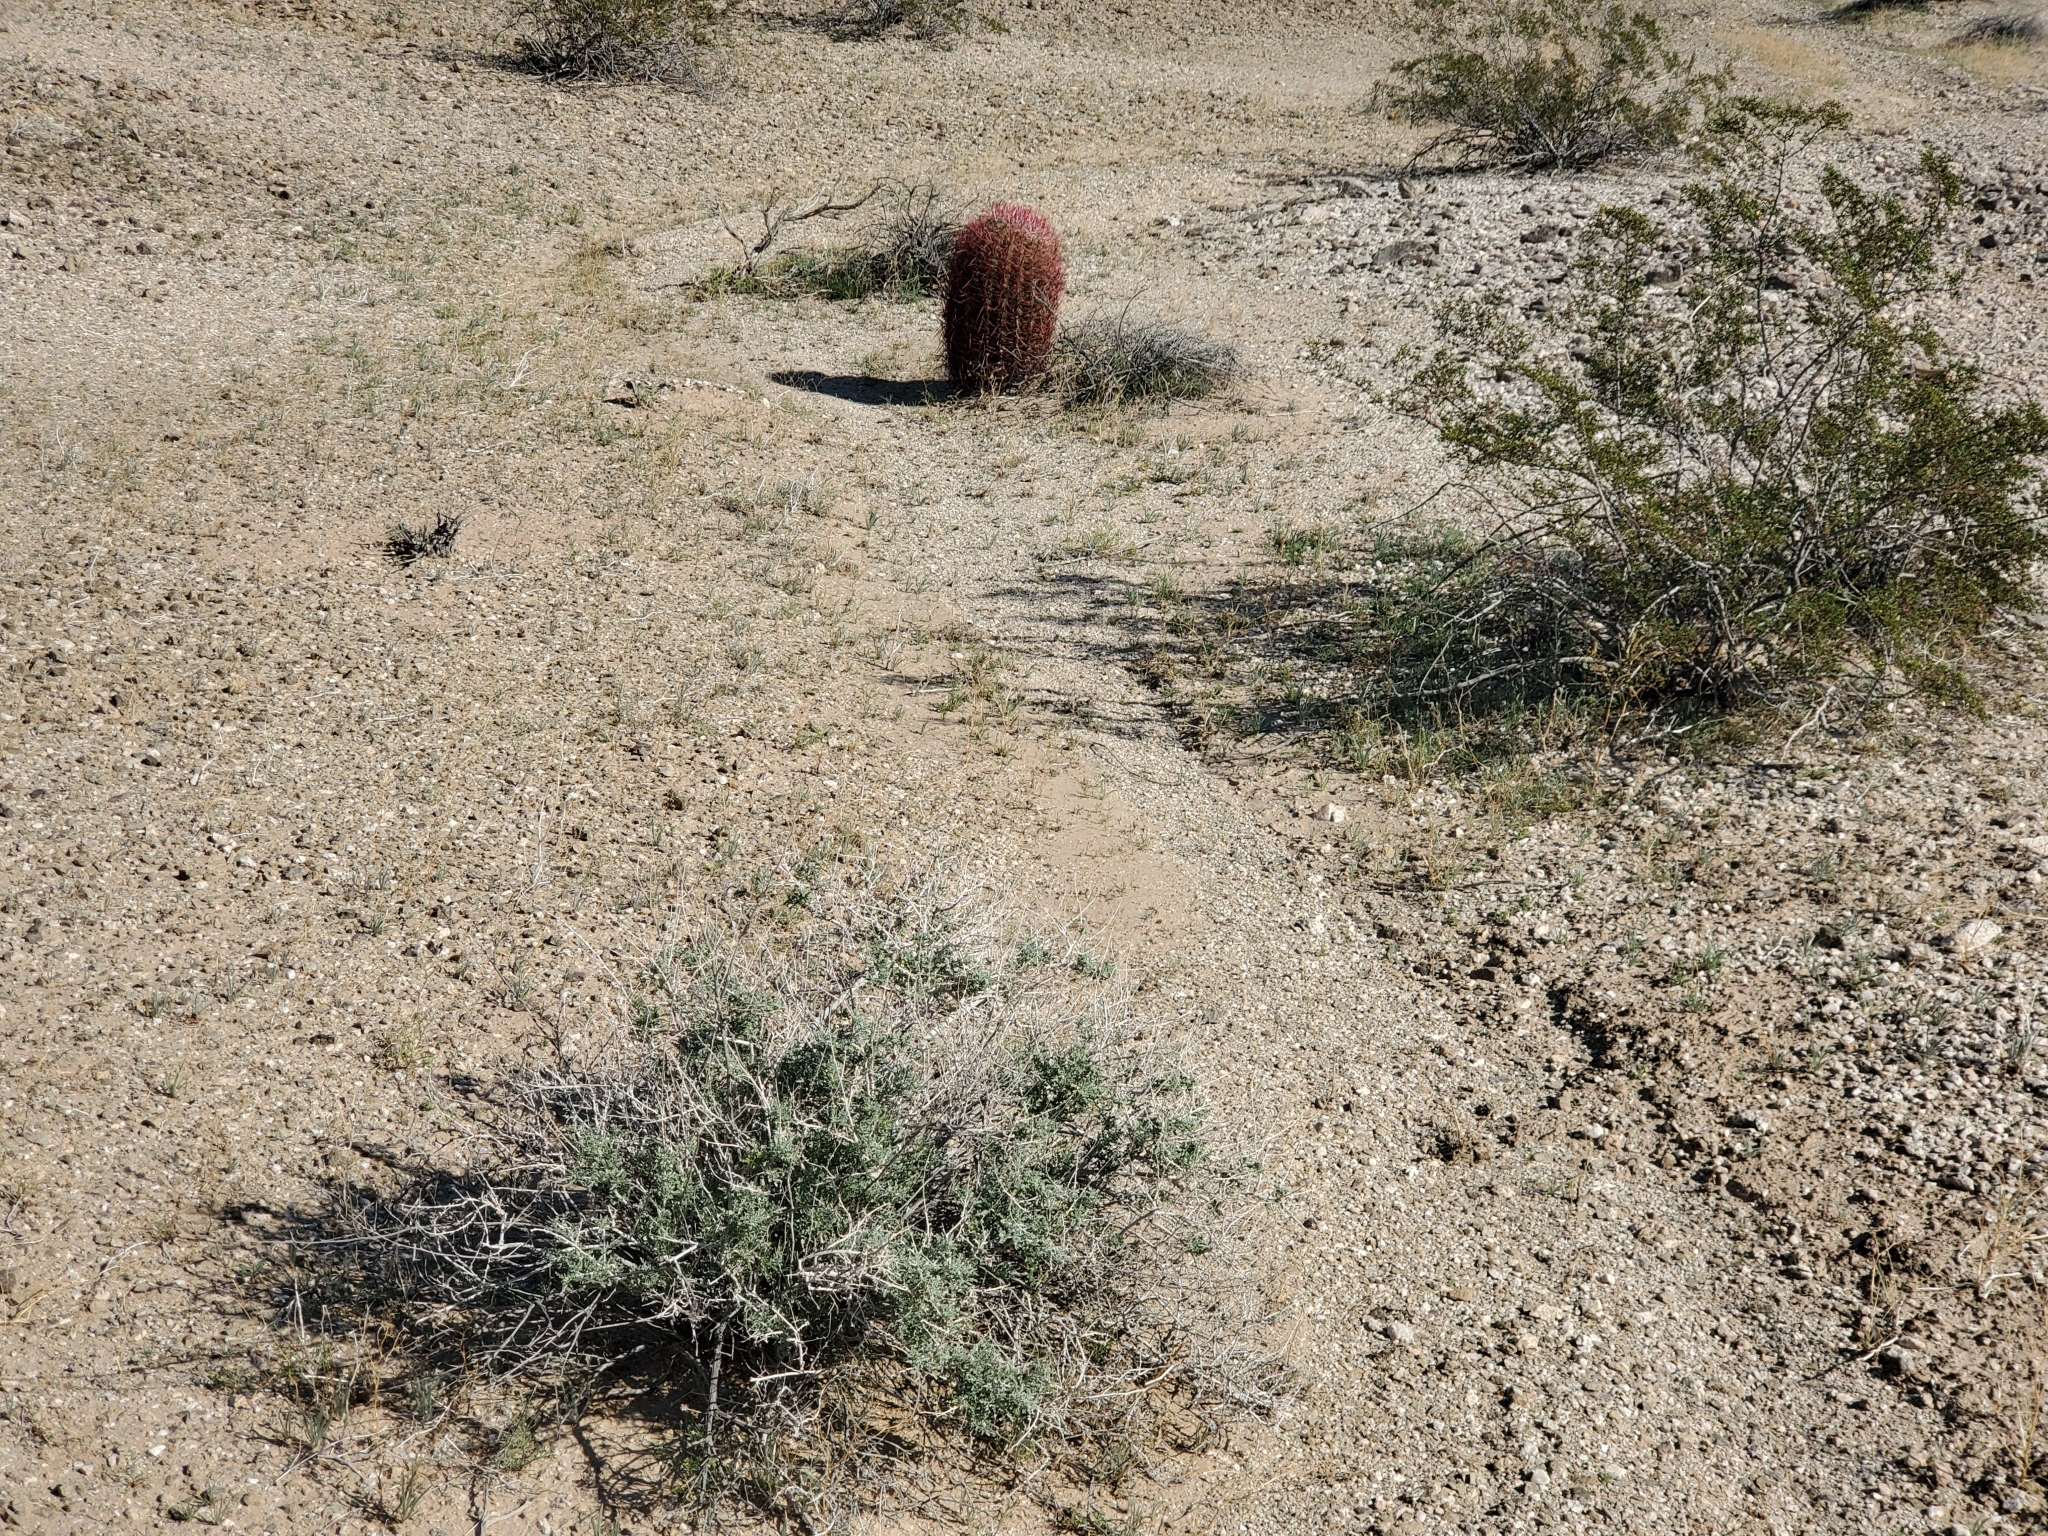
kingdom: Plantae
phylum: Tracheophyta
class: Magnoliopsida
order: Asterales
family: Asteraceae
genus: Ambrosia
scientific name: Ambrosia dumosa
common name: Bur-sage
